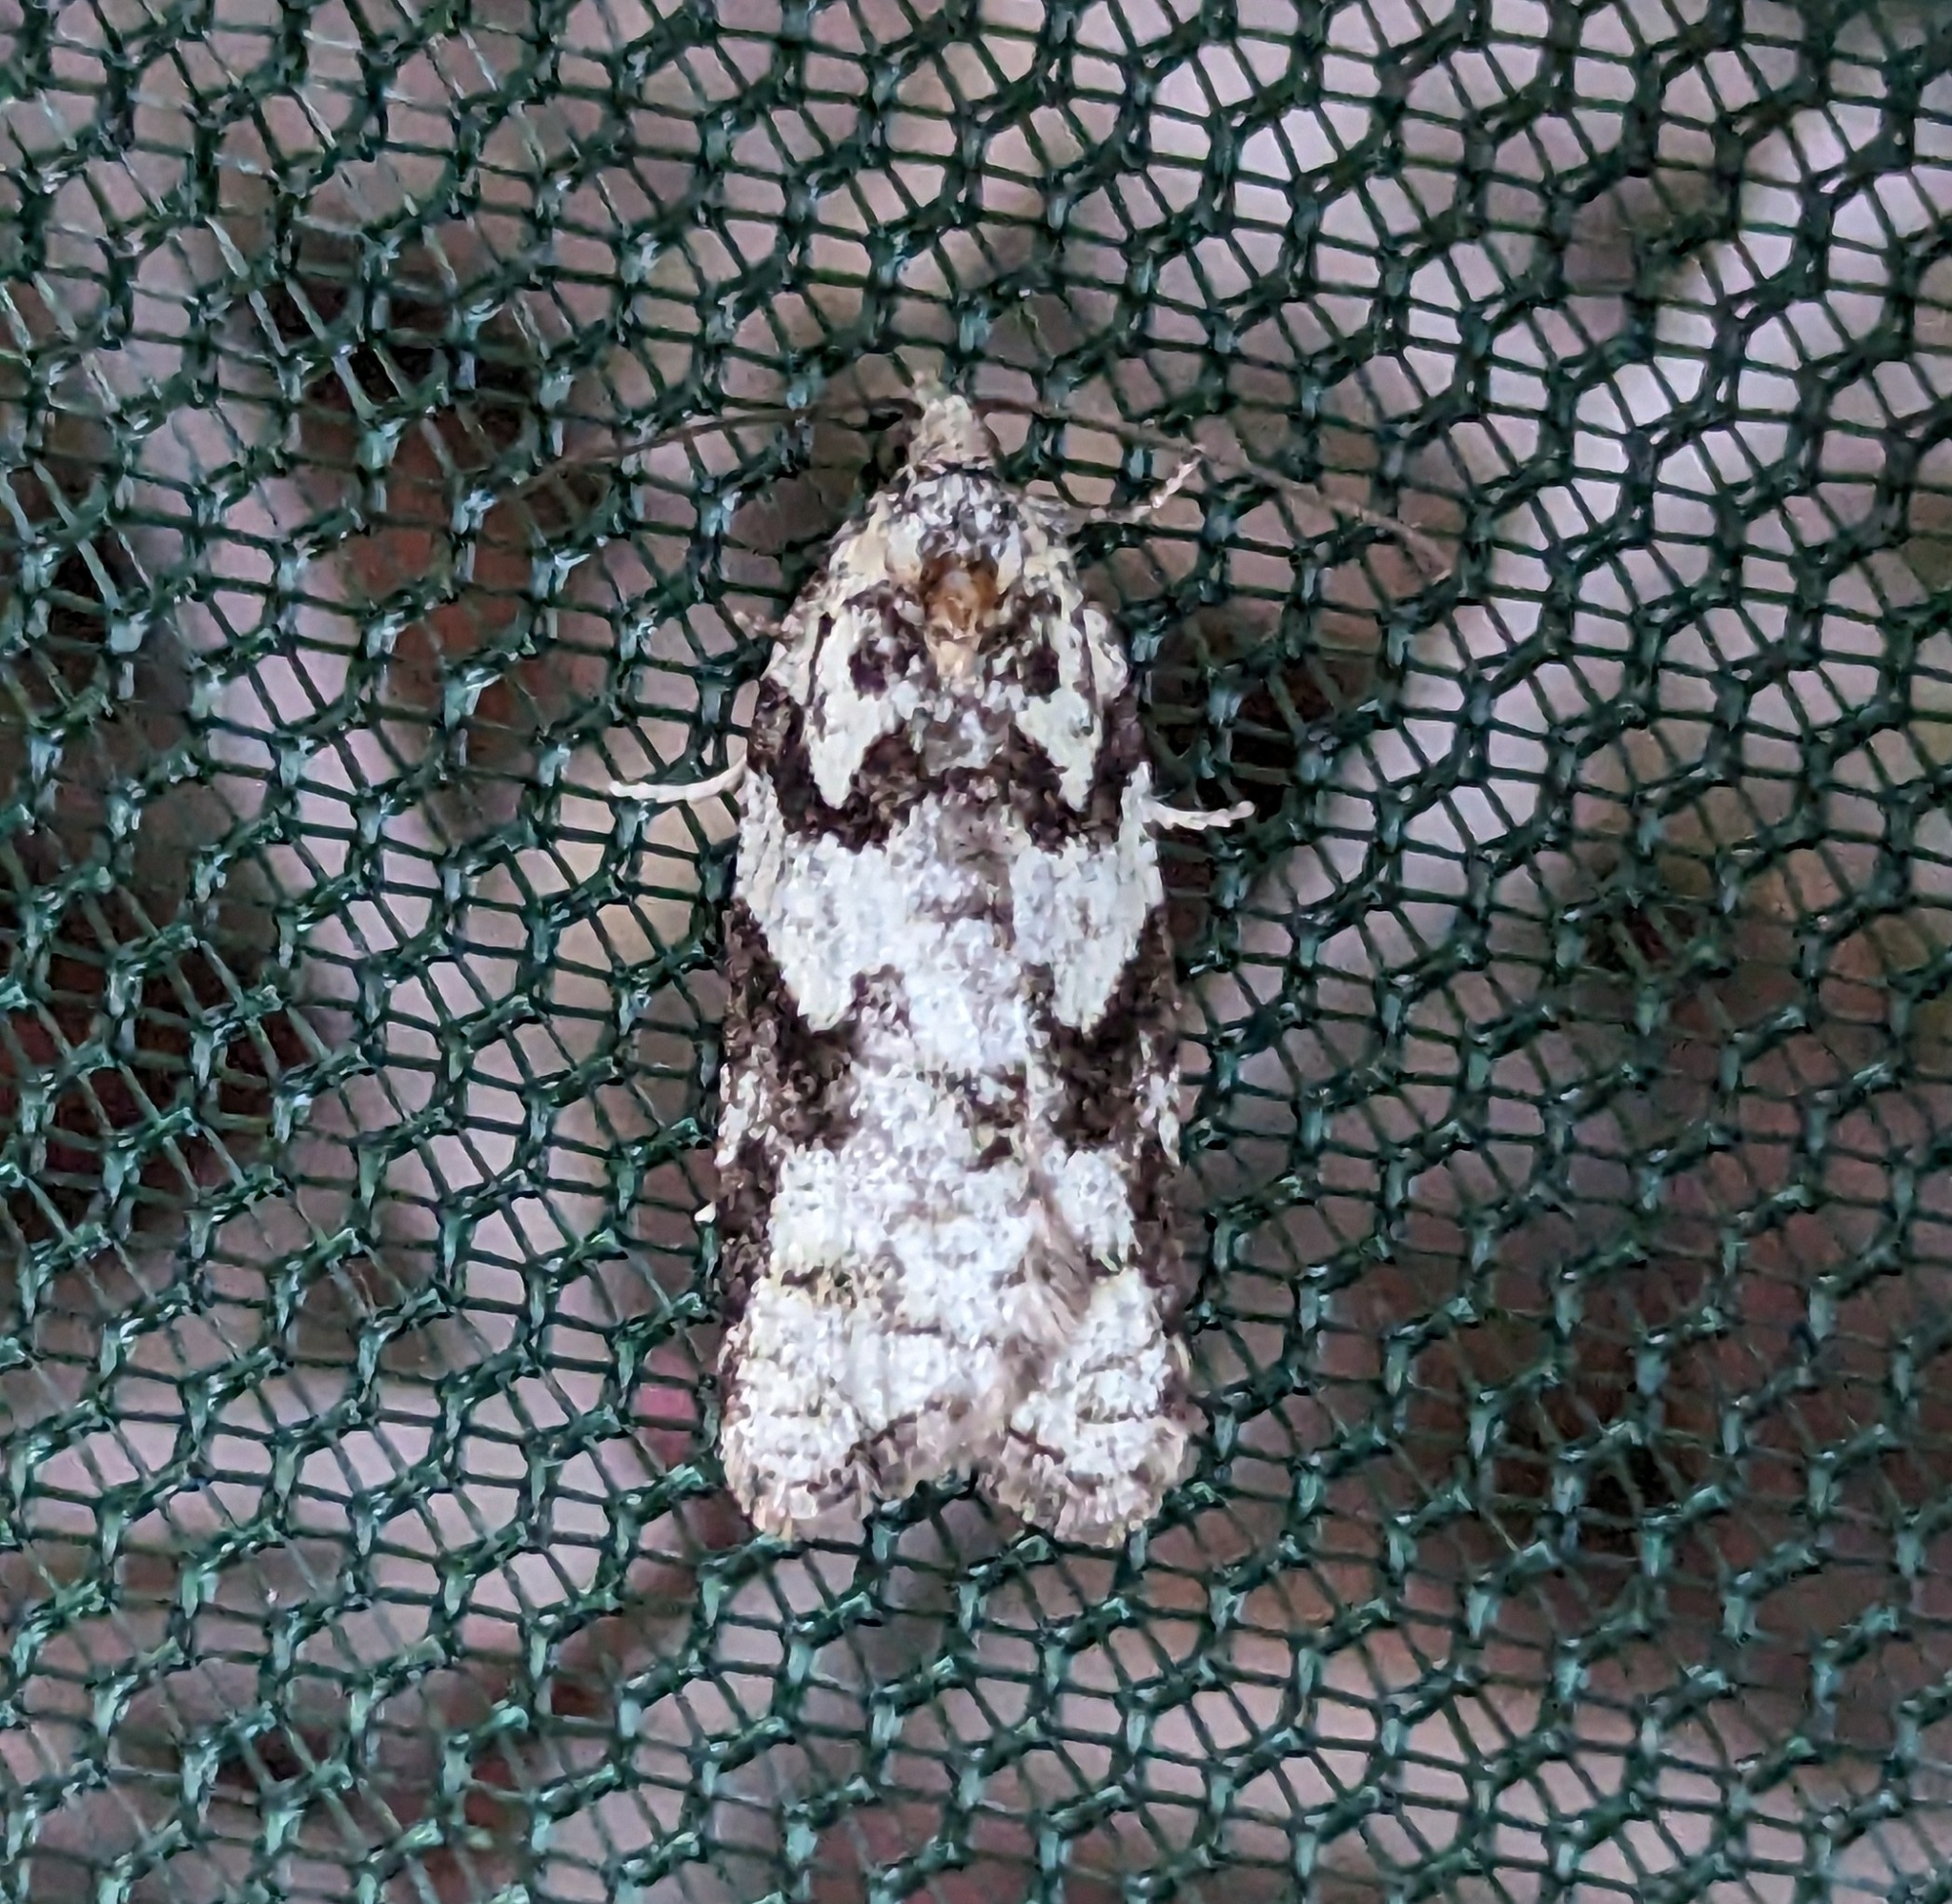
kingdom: Animalia
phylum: Arthropoda
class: Insecta
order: Lepidoptera
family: Tortricidae
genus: Acleris
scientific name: Acleris gloveranus
